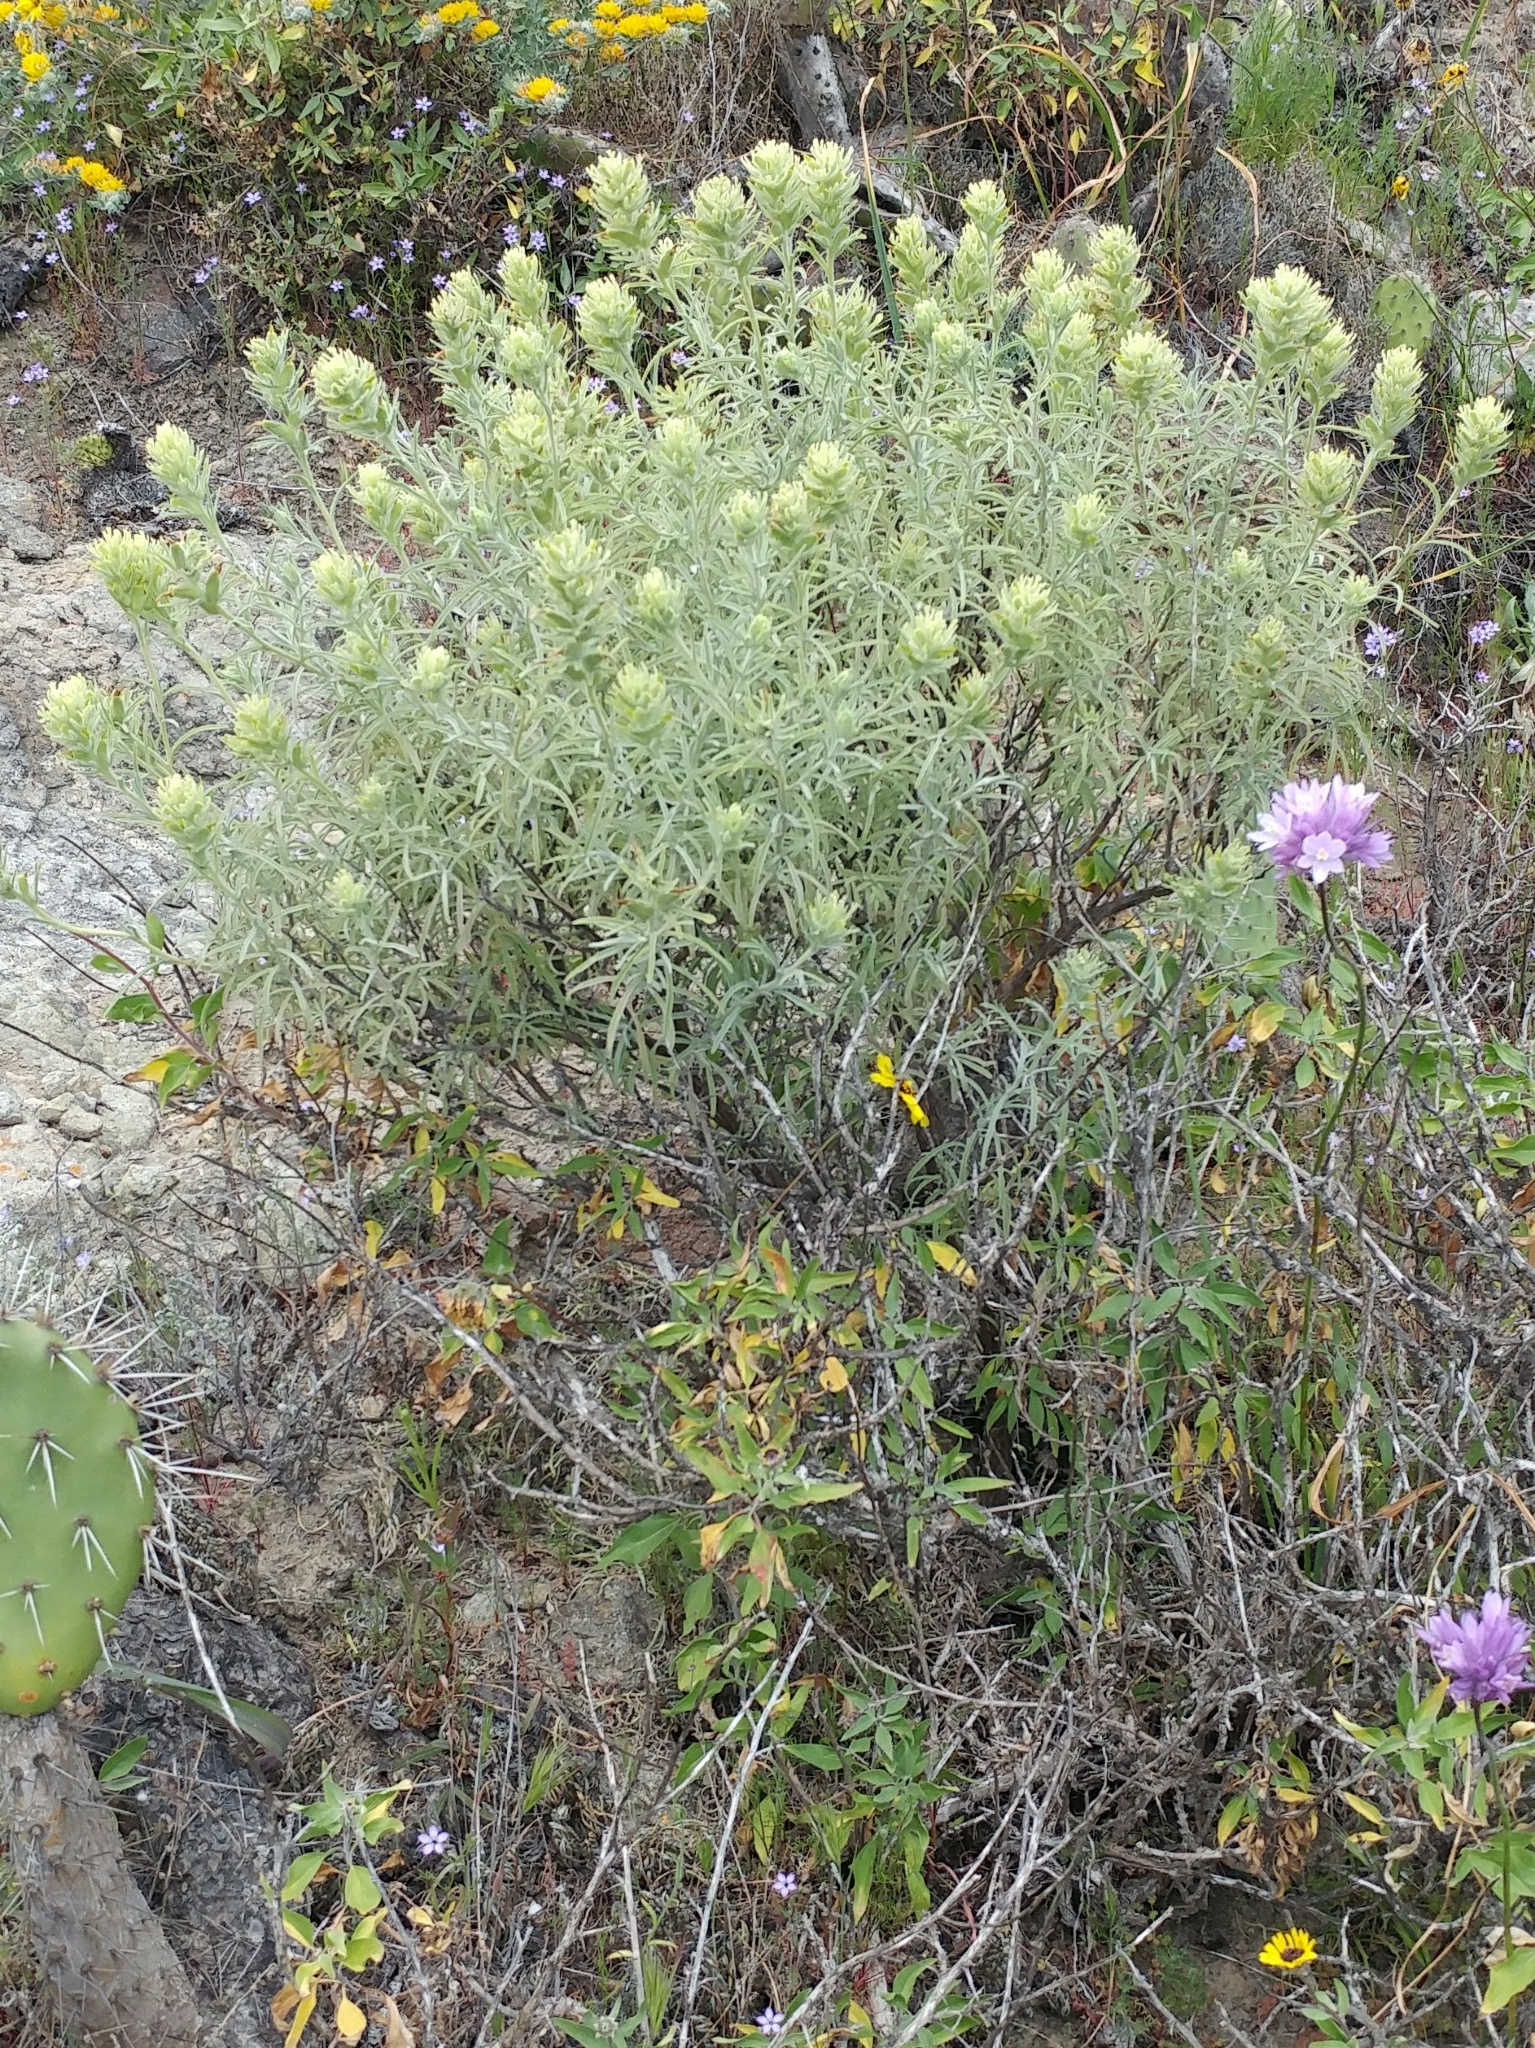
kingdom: Plantae
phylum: Tracheophyta
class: Magnoliopsida
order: Lamiales
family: Orobanchaceae
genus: Castilleja
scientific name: Castilleja grisea
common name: San clemente island indian paintbrush
